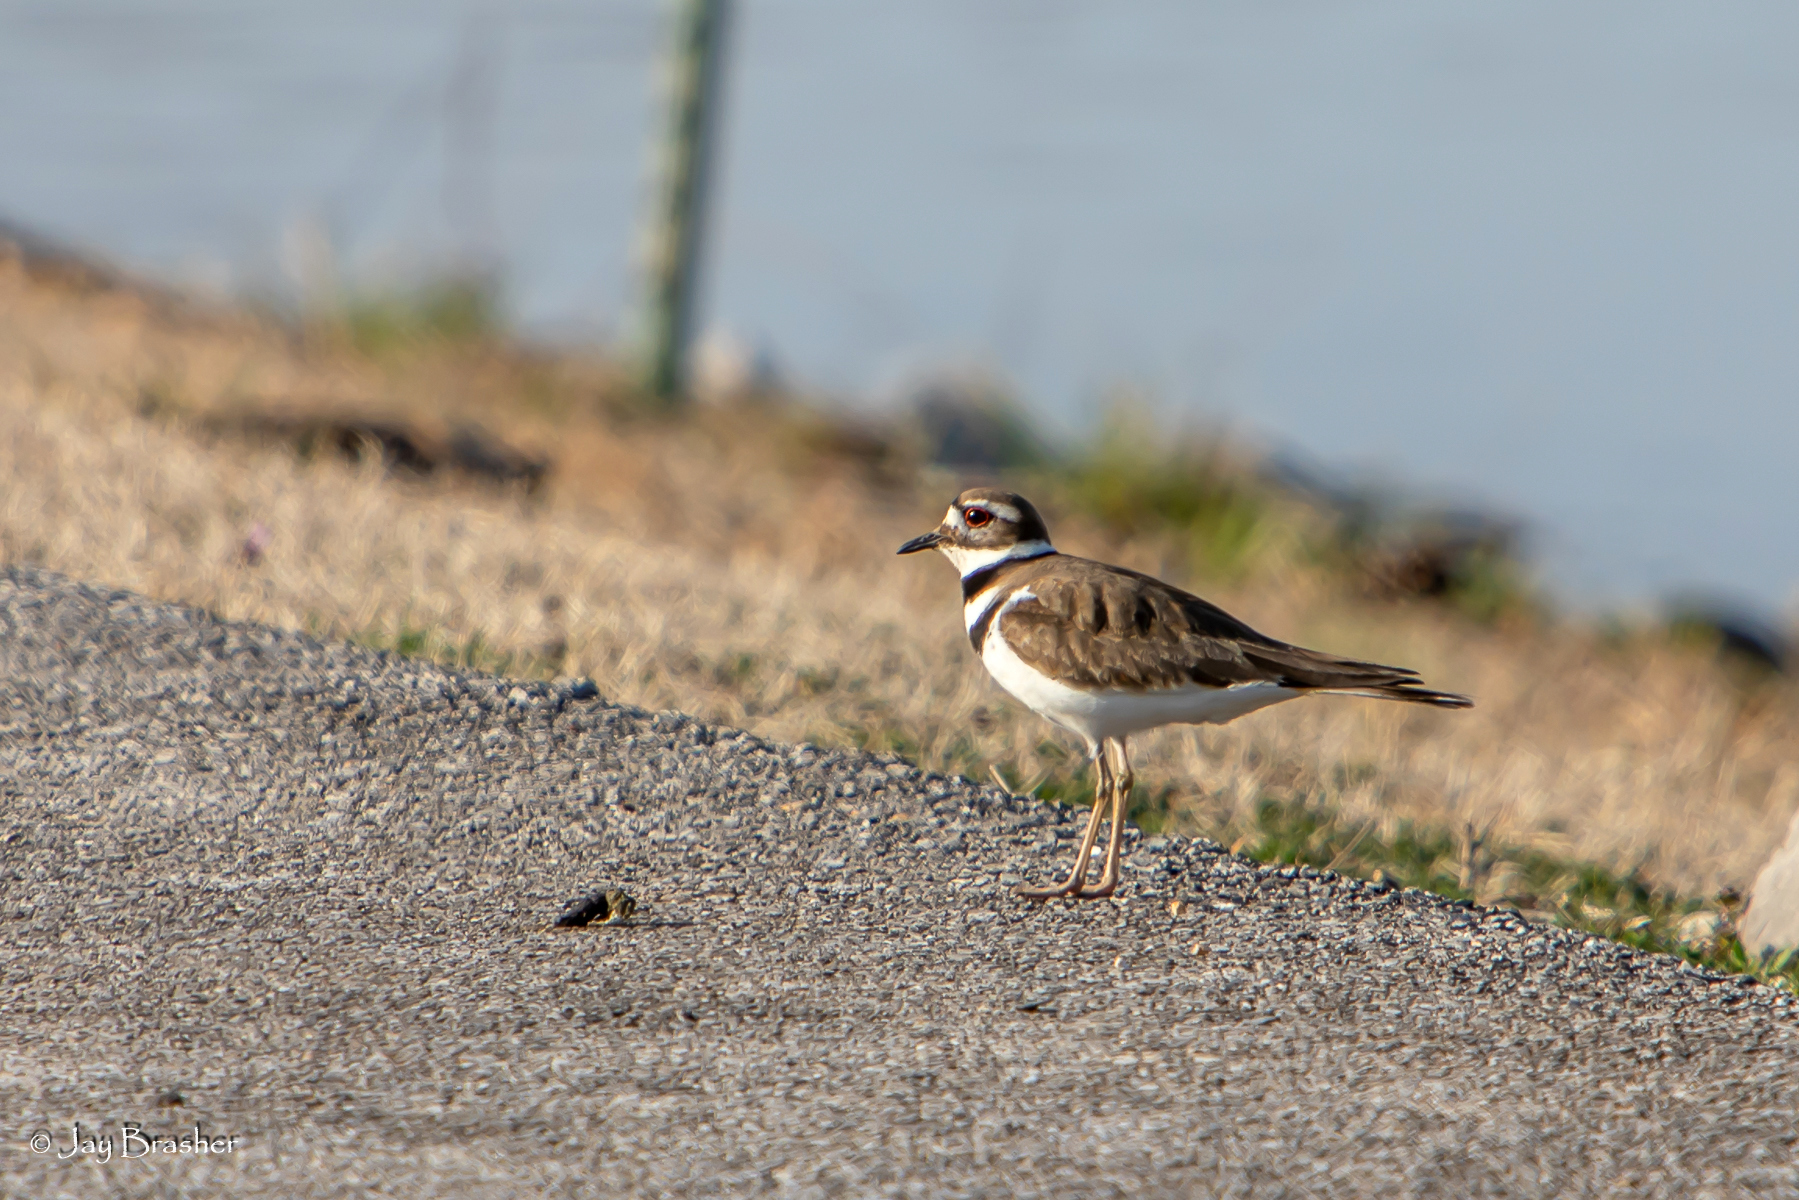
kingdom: Animalia
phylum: Chordata
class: Aves
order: Charadriiformes
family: Charadriidae
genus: Charadrius
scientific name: Charadrius vociferus
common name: Killdeer
